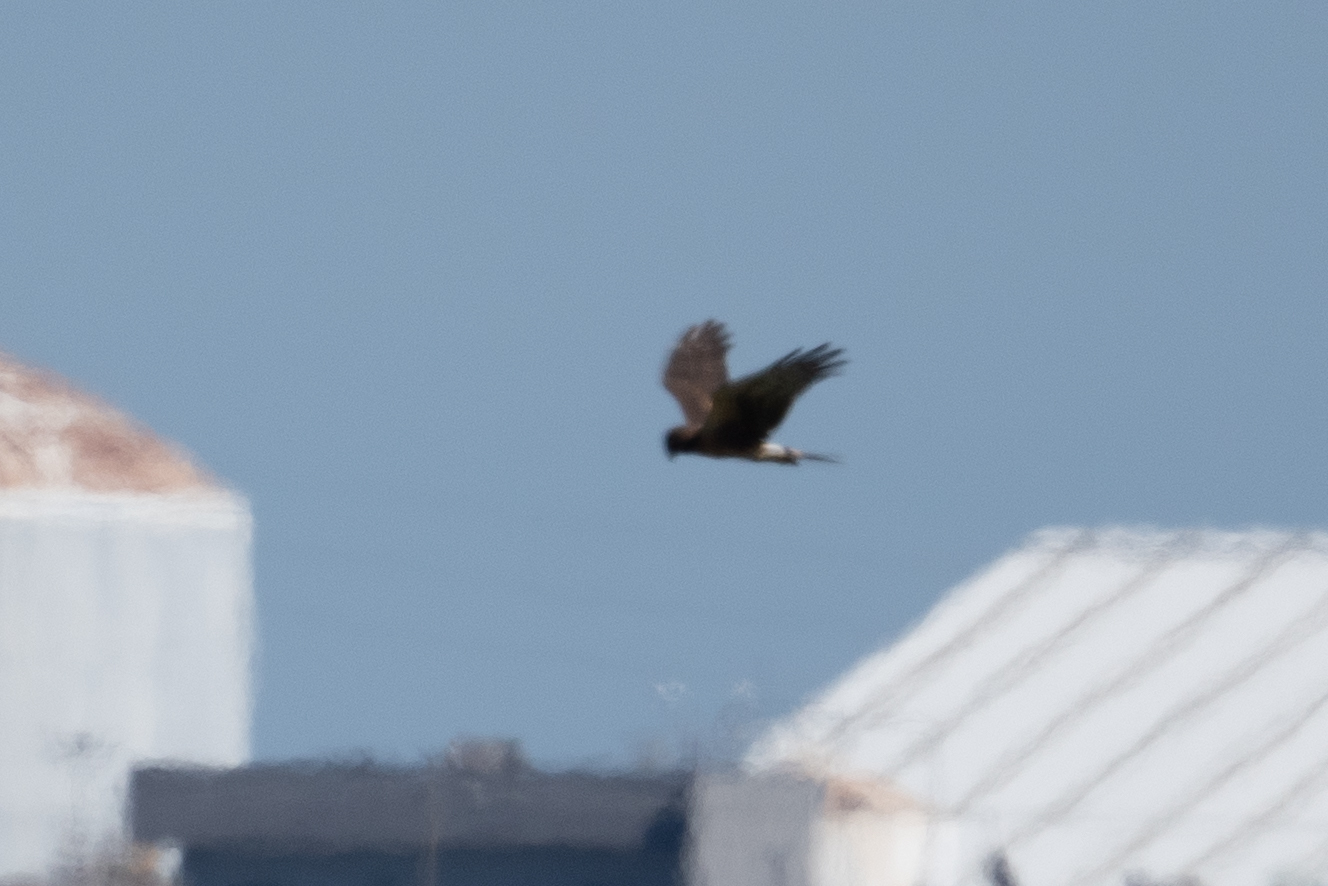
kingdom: Animalia
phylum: Chordata
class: Aves
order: Accipitriformes
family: Accipitridae
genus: Circus
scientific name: Circus cyaneus
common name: Hen harrier
